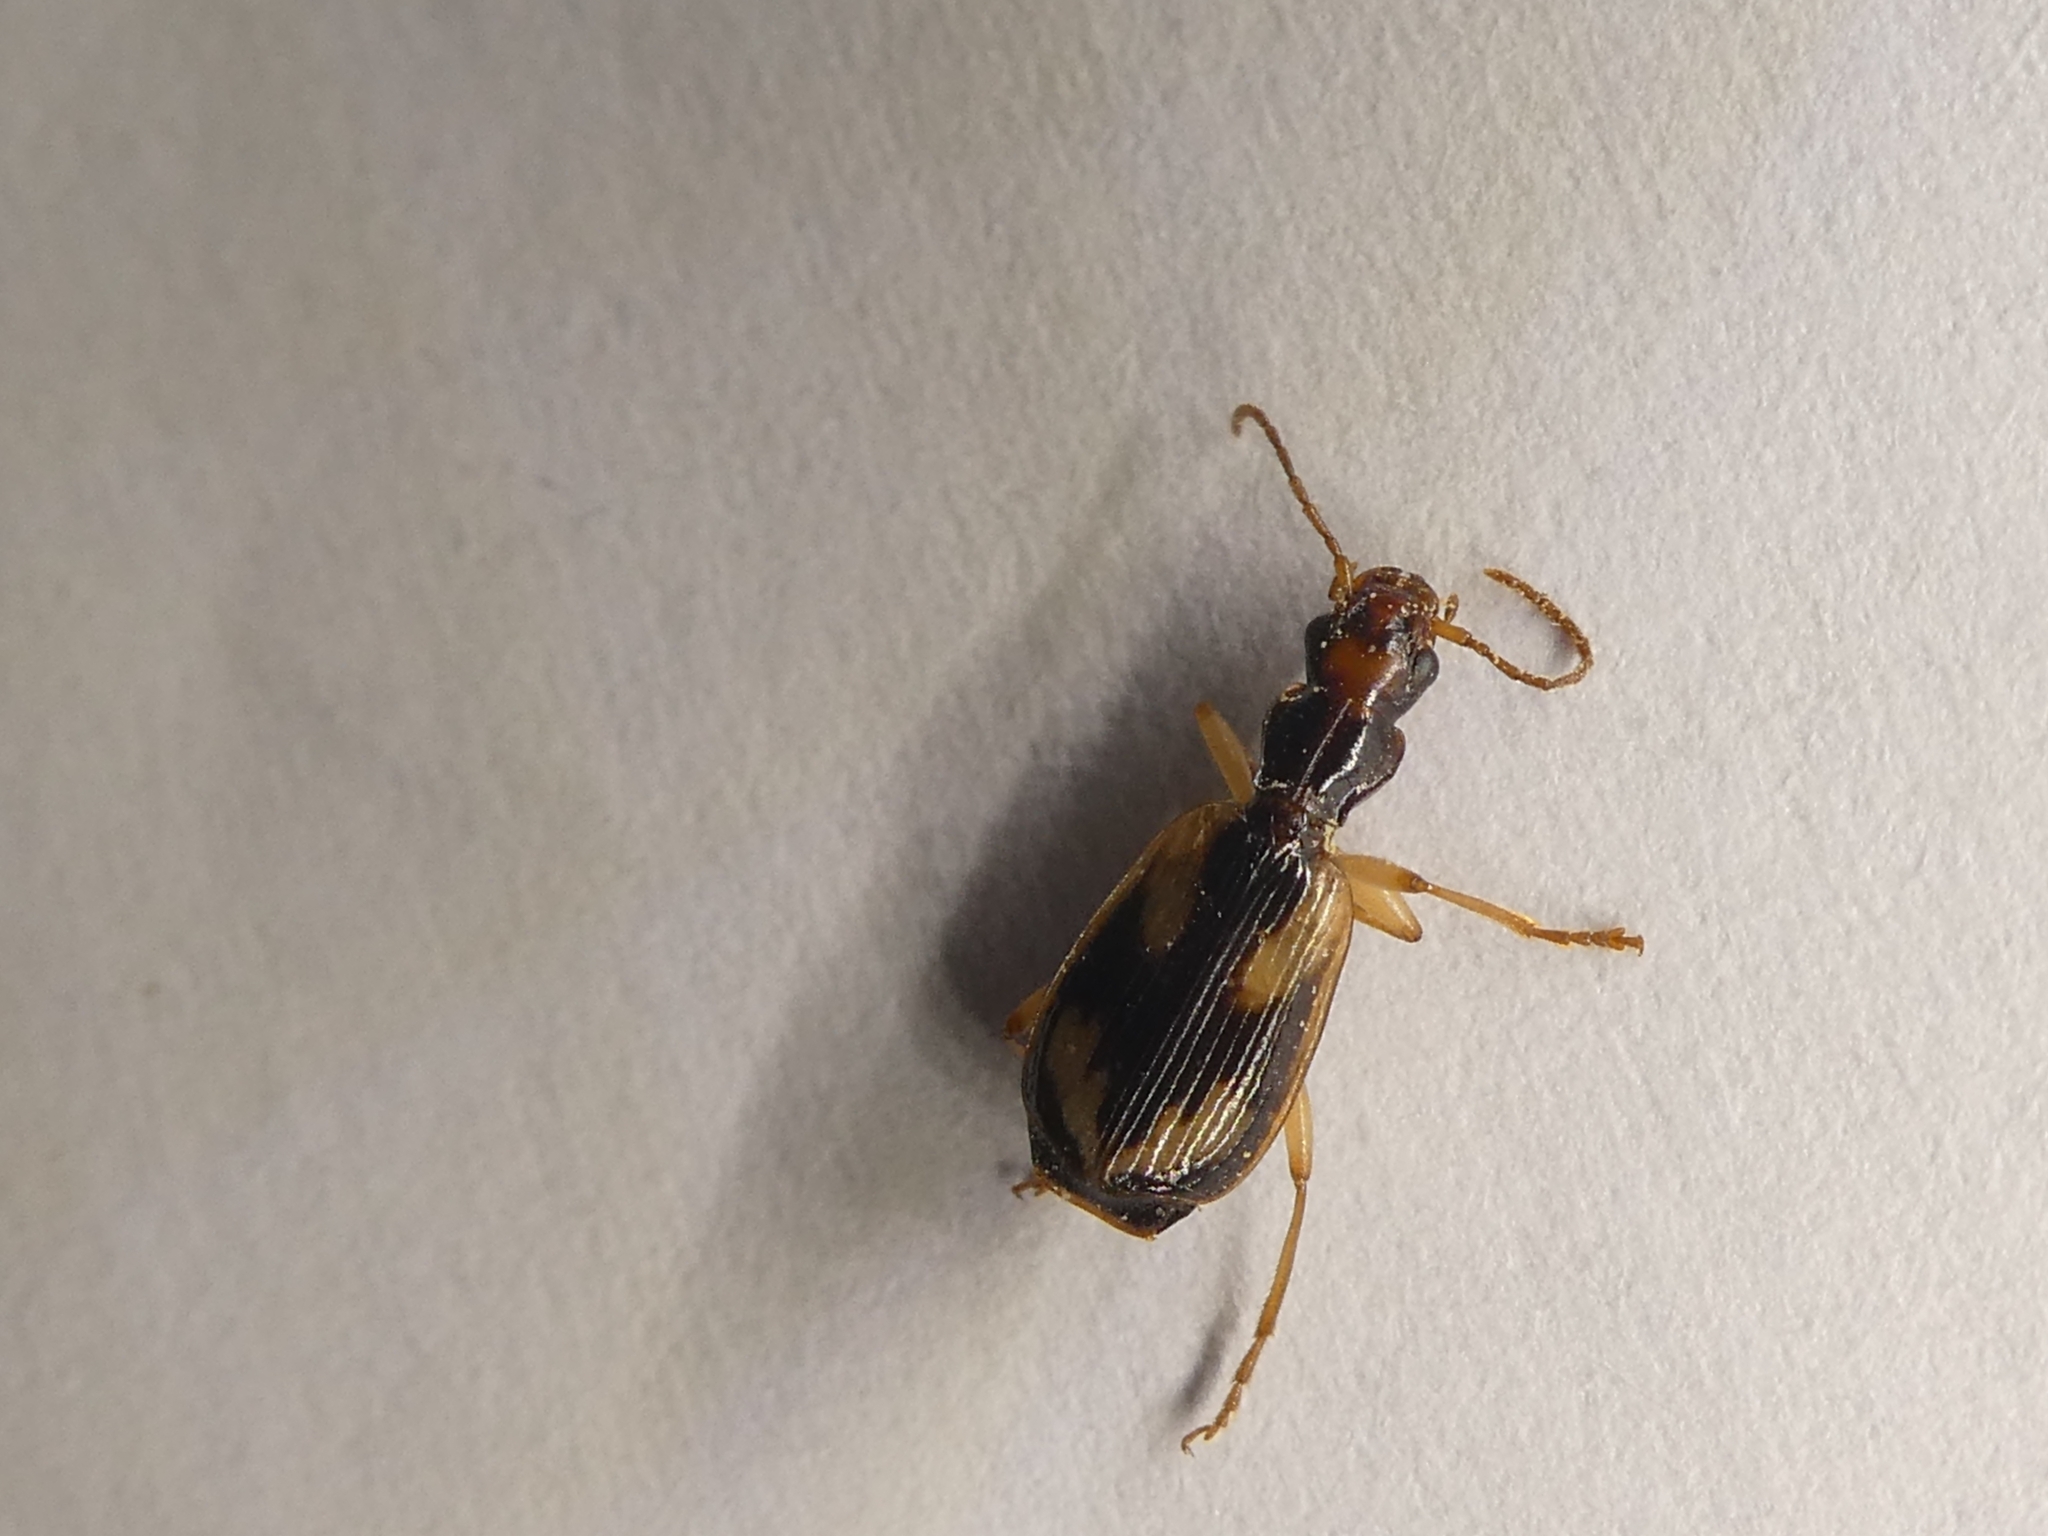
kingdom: Animalia
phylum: Arthropoda
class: Insecta
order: Coleoptera
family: Carabidae
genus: Demetrida
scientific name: Demetrida nasuta
